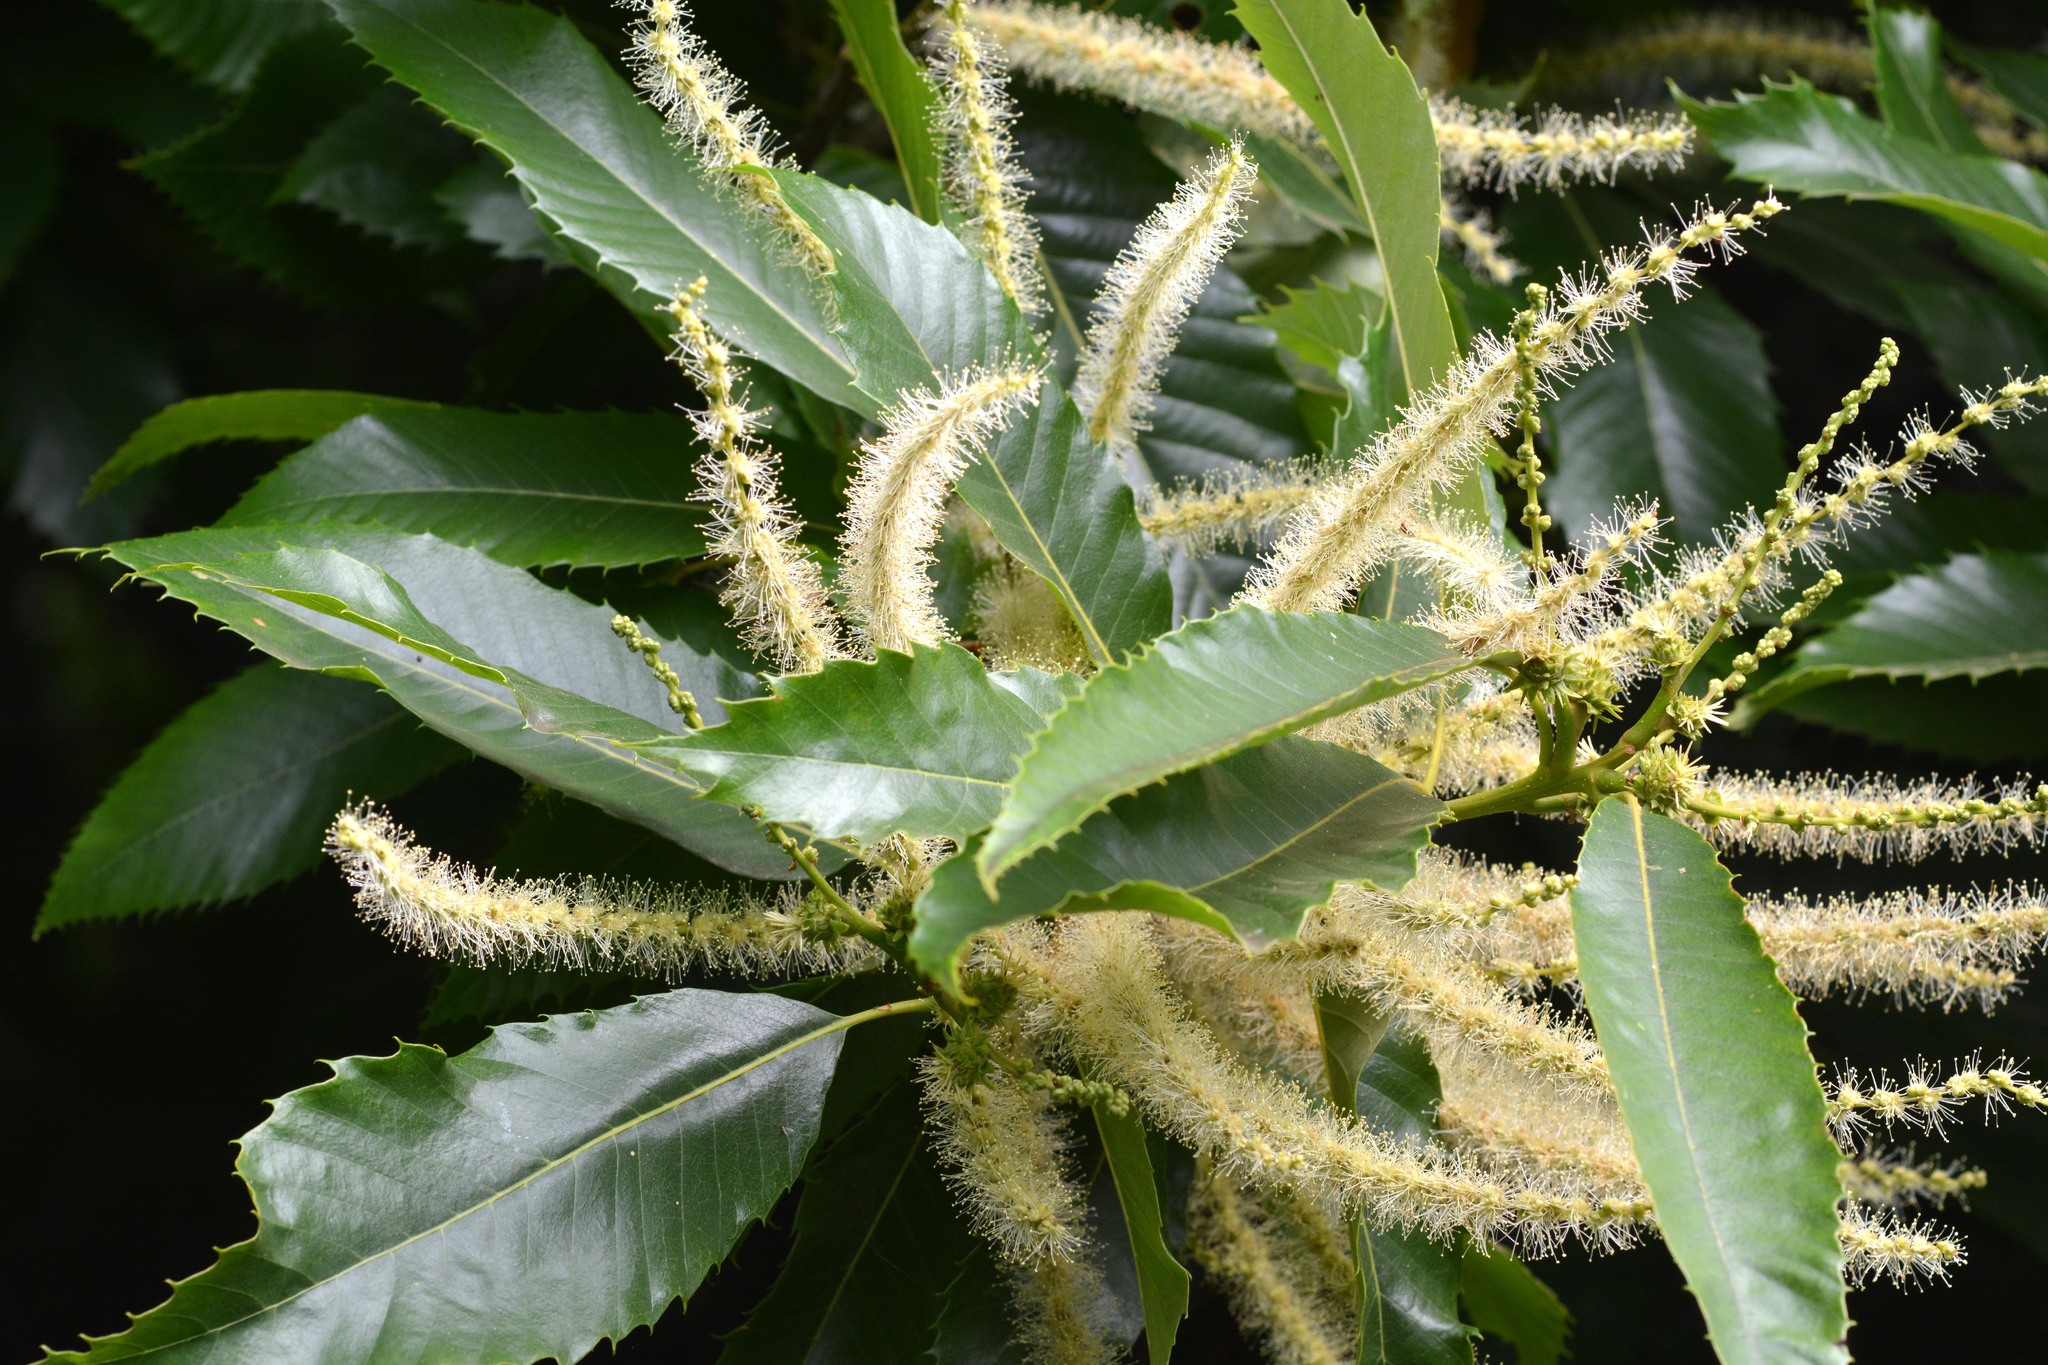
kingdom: Plantae
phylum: Tracheophyta
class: Magnoliopsida
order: Fagales
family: Fagaceae
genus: Castanea
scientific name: Castanea sativa
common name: Sweet chestnut
